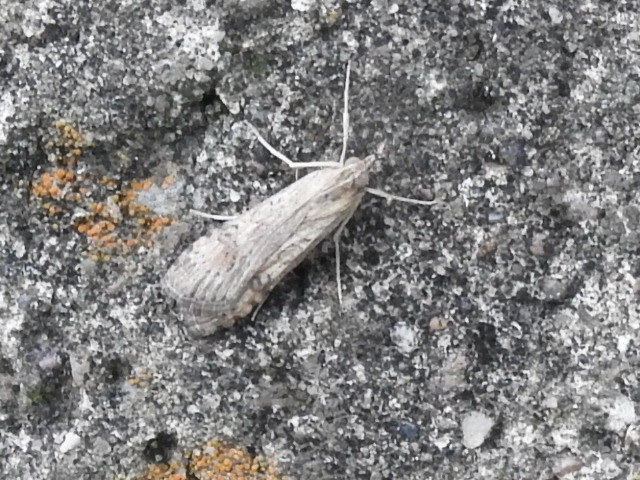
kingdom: Animalia
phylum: Arthropoda
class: Insecta
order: Lepidoptera
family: Crambidae
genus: Nomophila
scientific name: Nomophila nearctica
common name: American rush veneer
